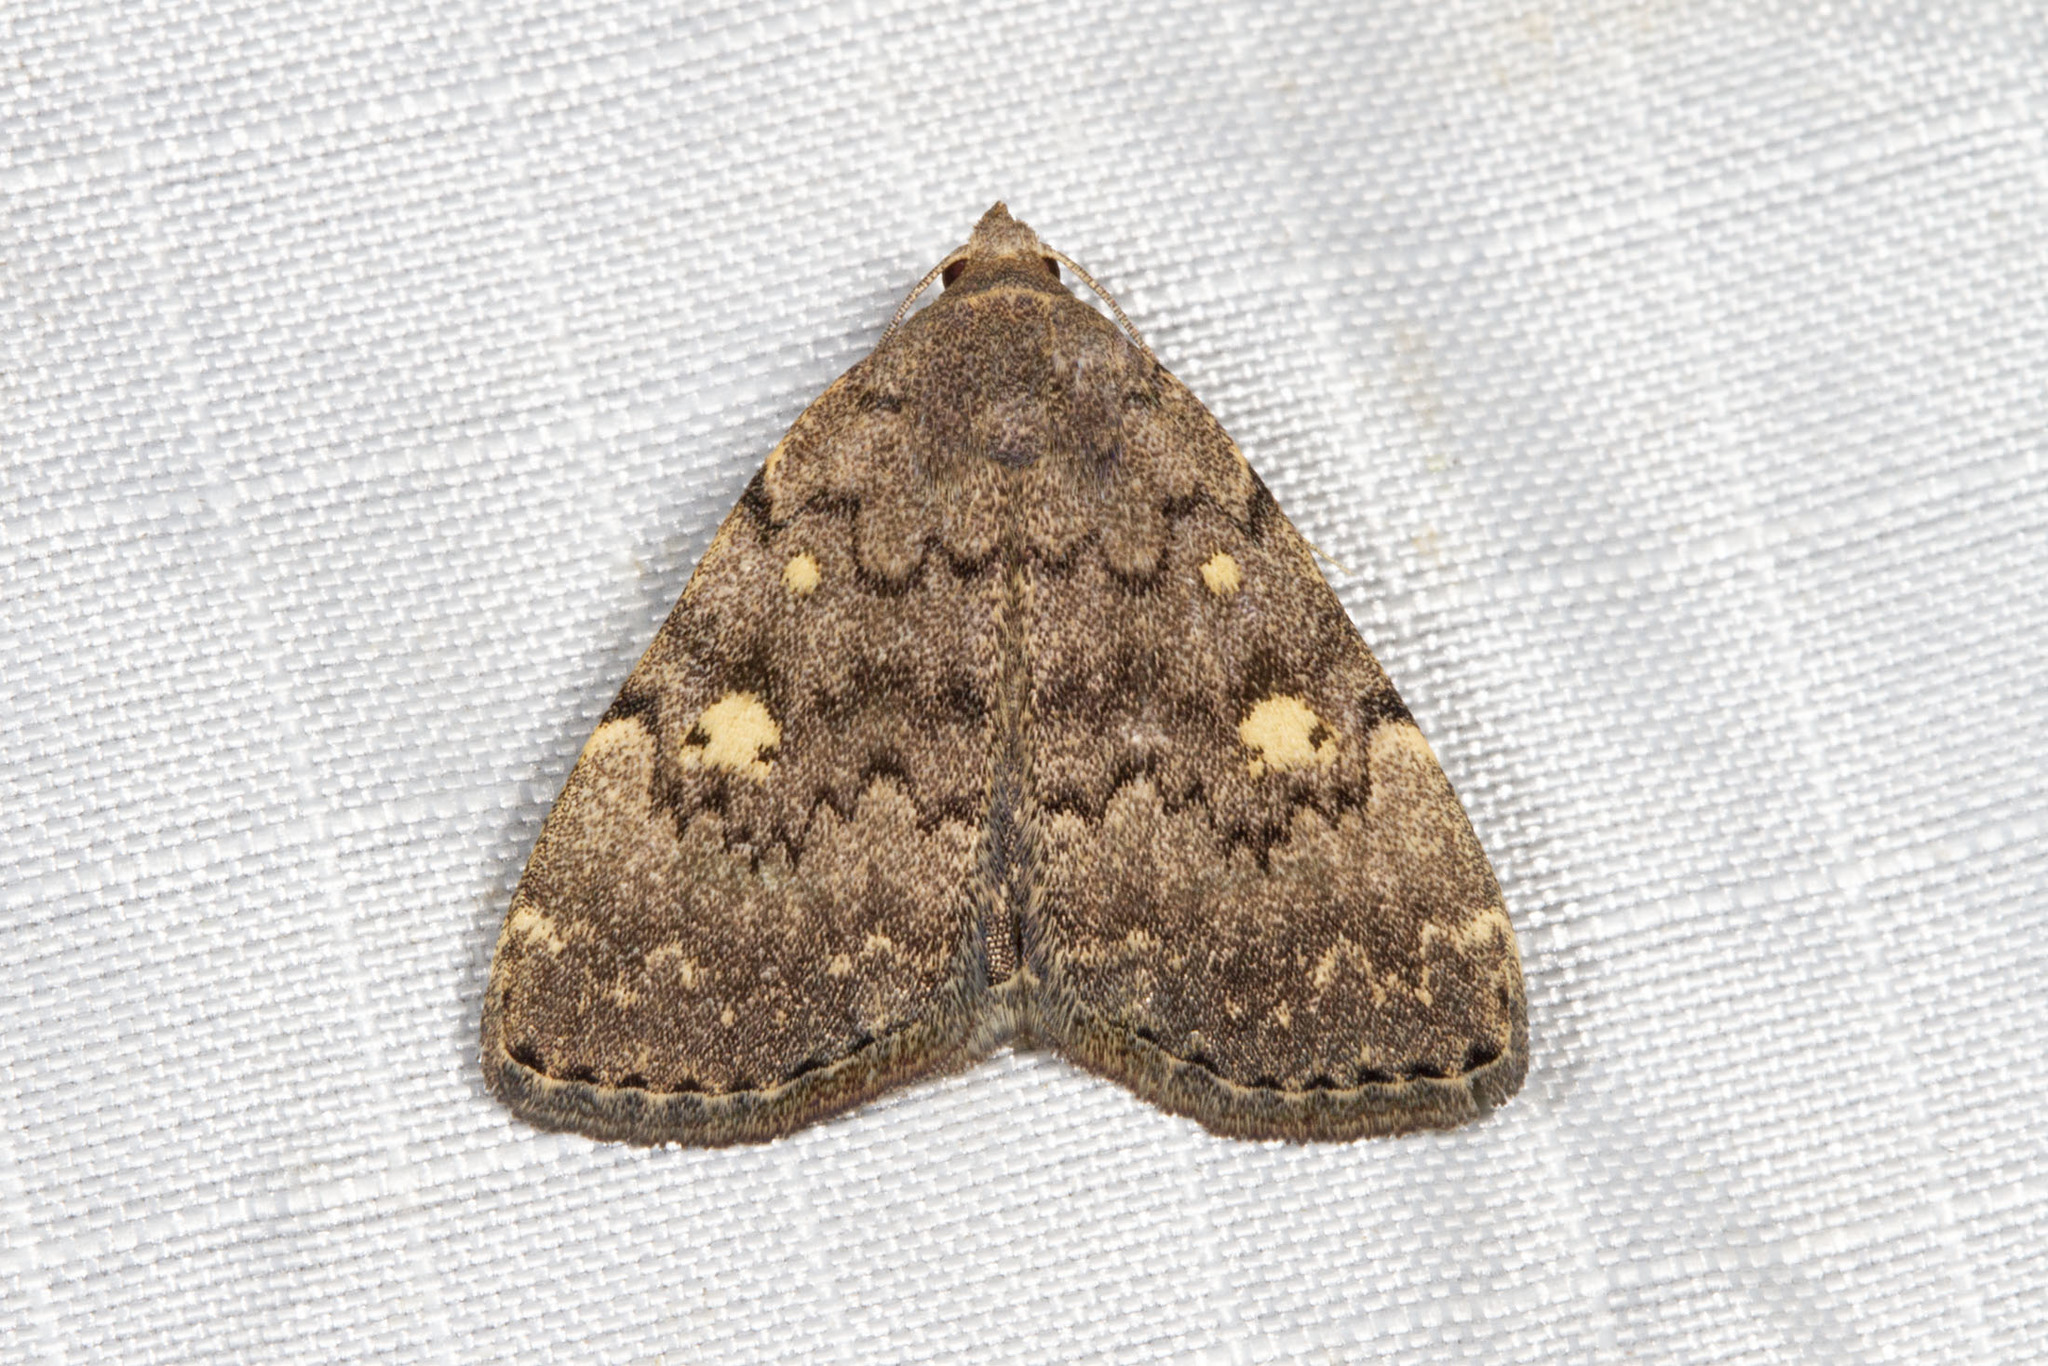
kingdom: Animalia
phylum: Arthropoda
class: Insecta
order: Lepidoptera
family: Erebidae
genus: Idia
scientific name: Idia aemula
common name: Common idia moth
